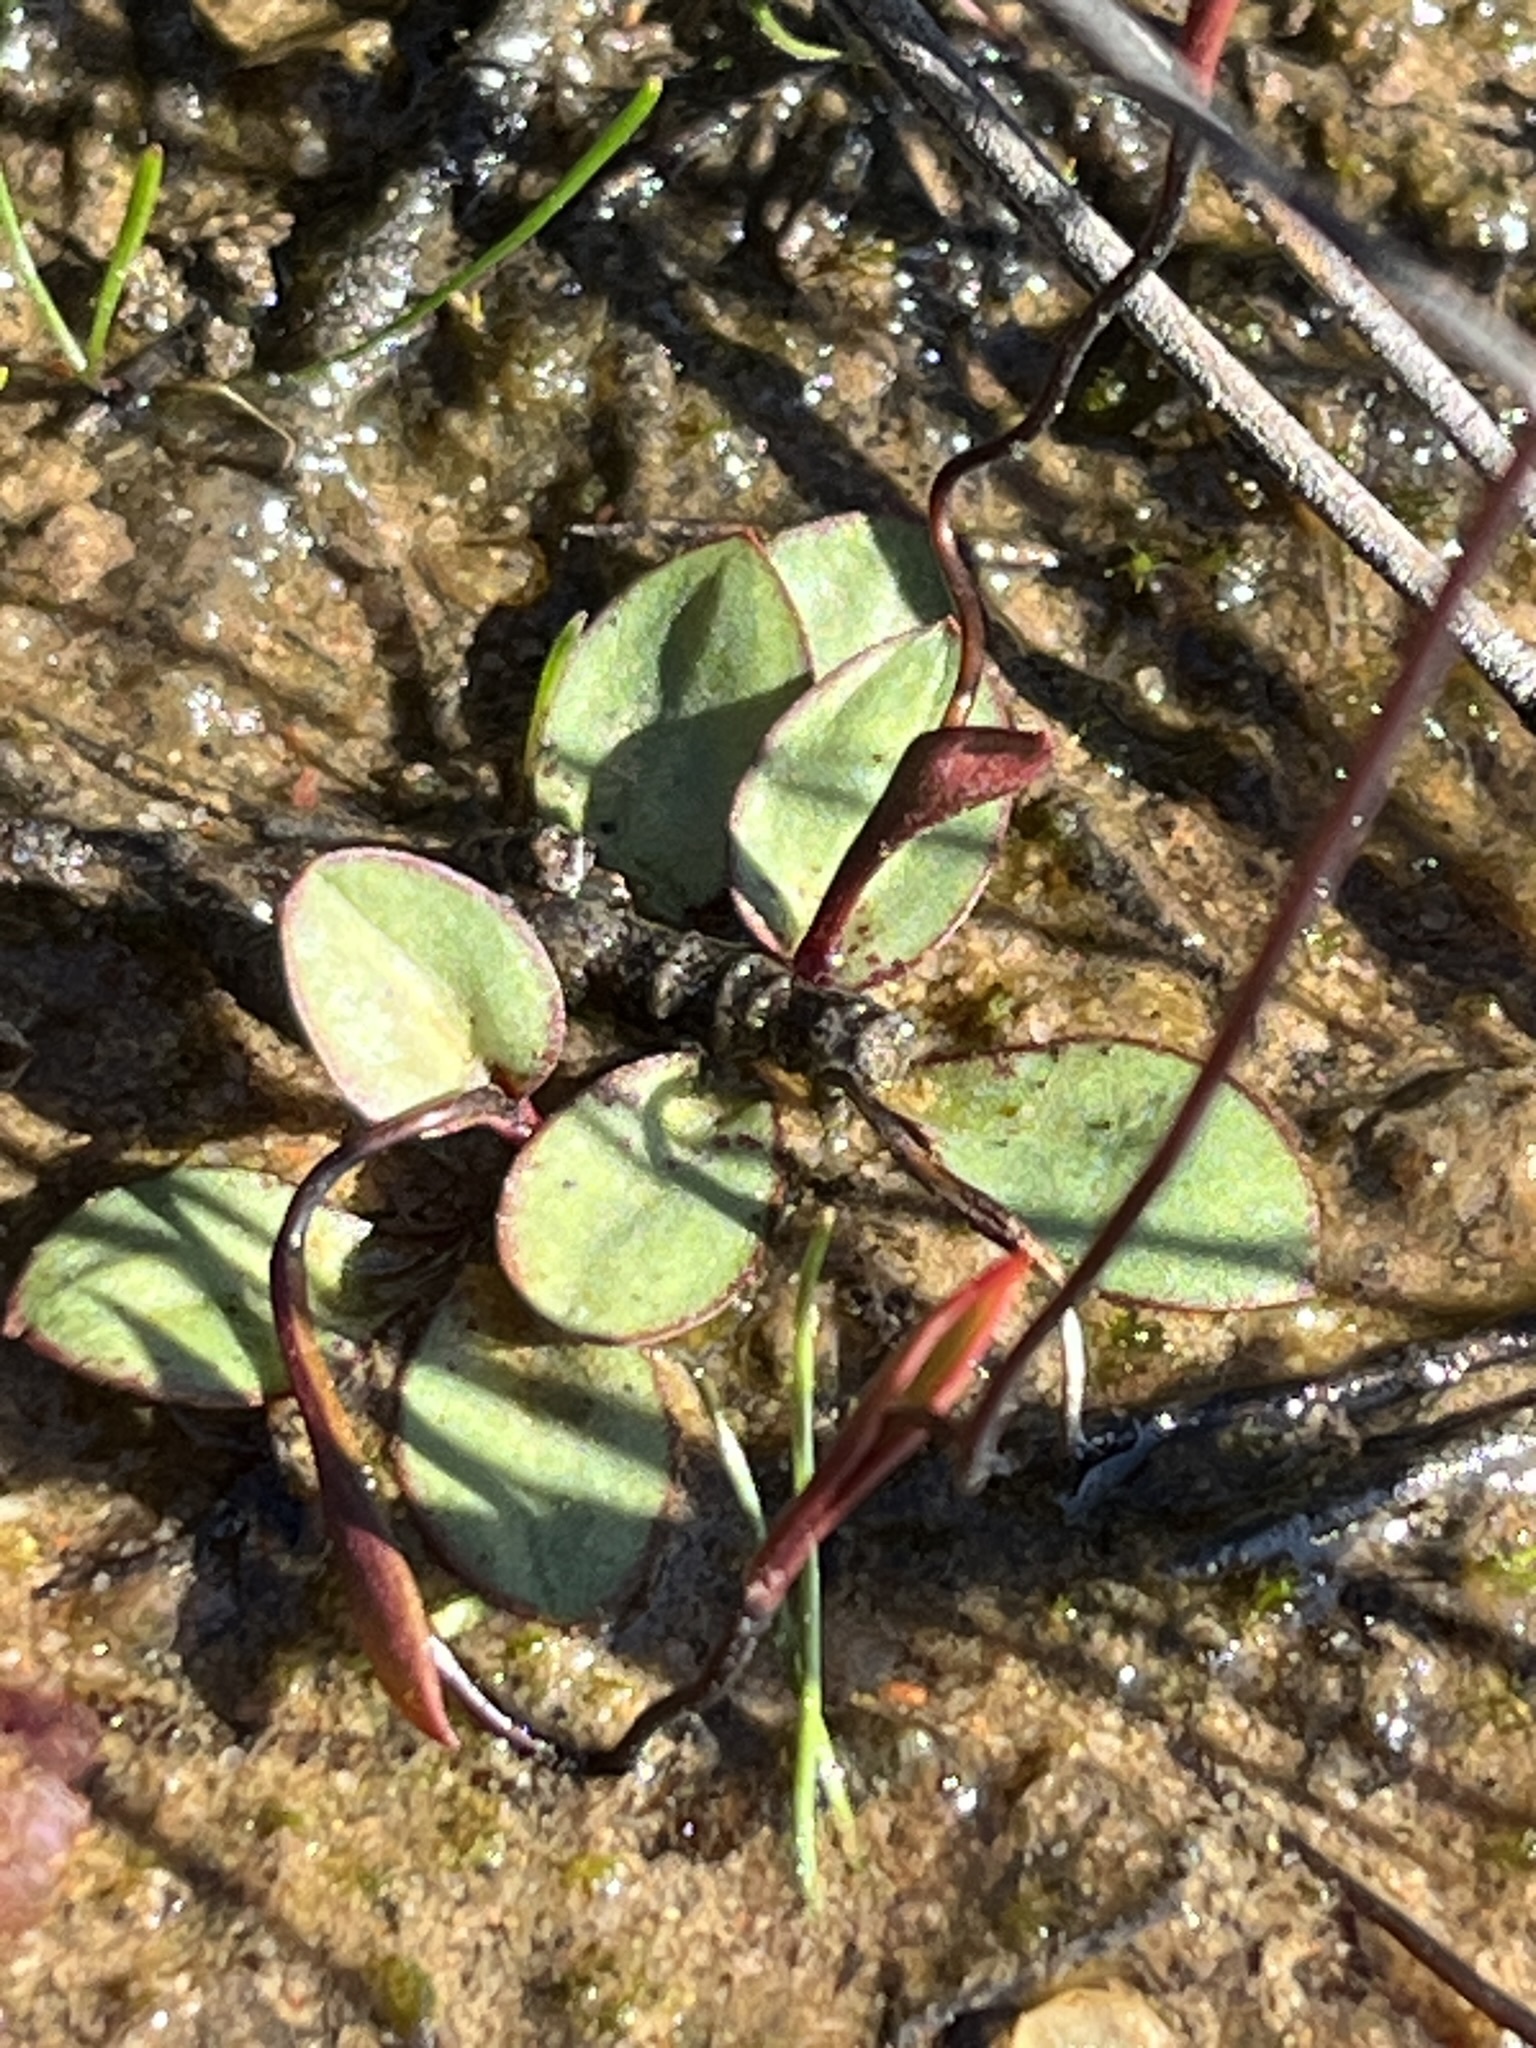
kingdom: Plantae
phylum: Tracheophyta
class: Liliopsida
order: Asparagales
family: Orchidaceae
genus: Disa
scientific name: Disa biflora
